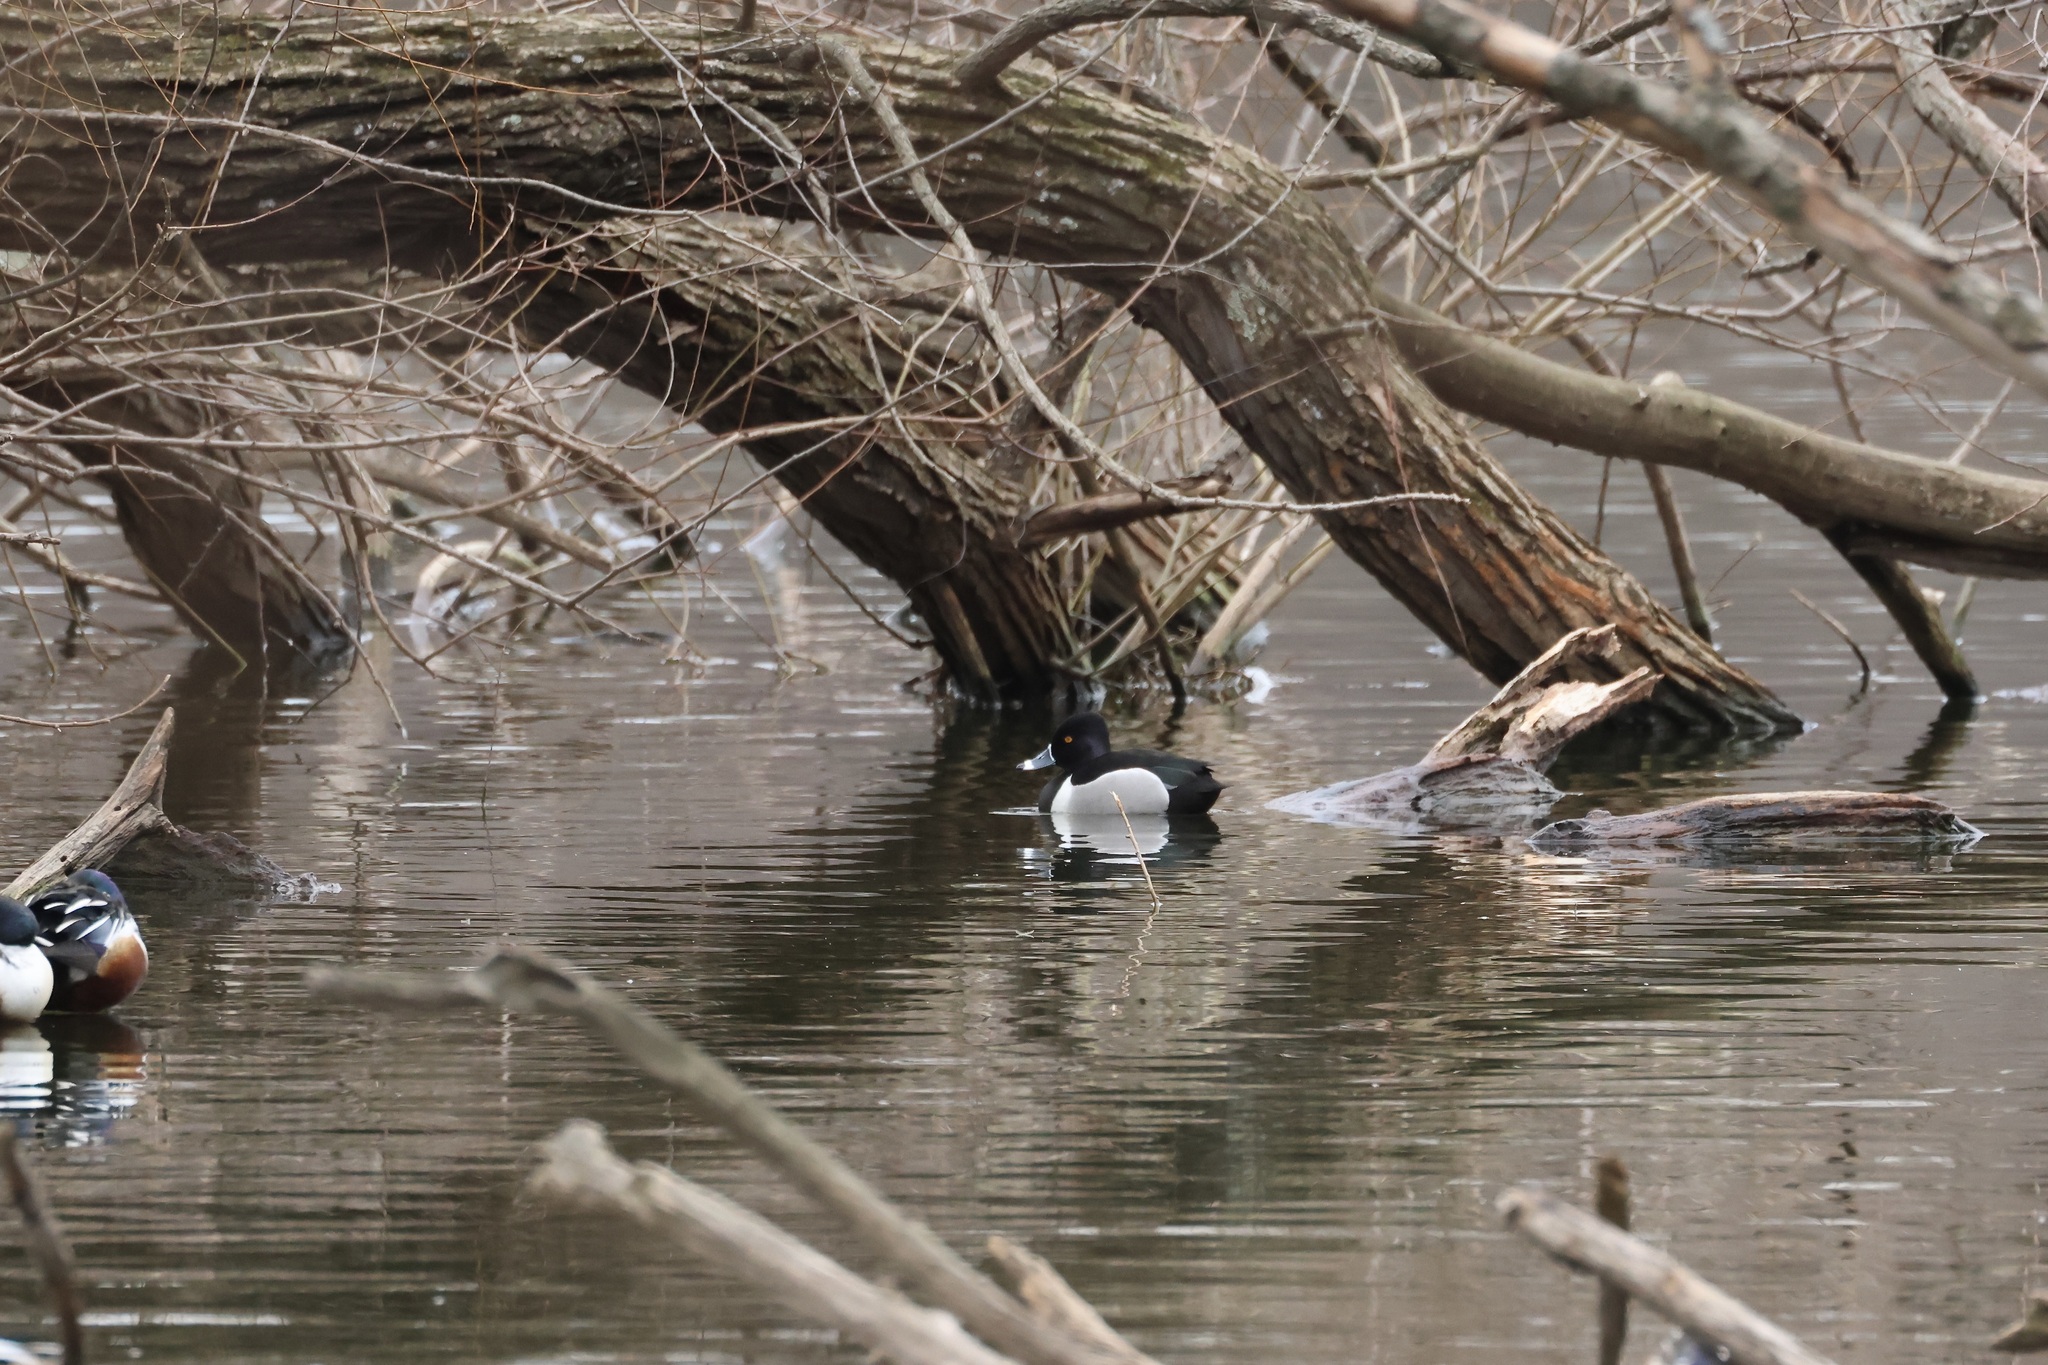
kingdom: Animalia
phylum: Chordata
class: Aves
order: Anseriformes
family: Anatidae
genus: Aythya
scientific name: Aythya collaris
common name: Ring-necked duck
